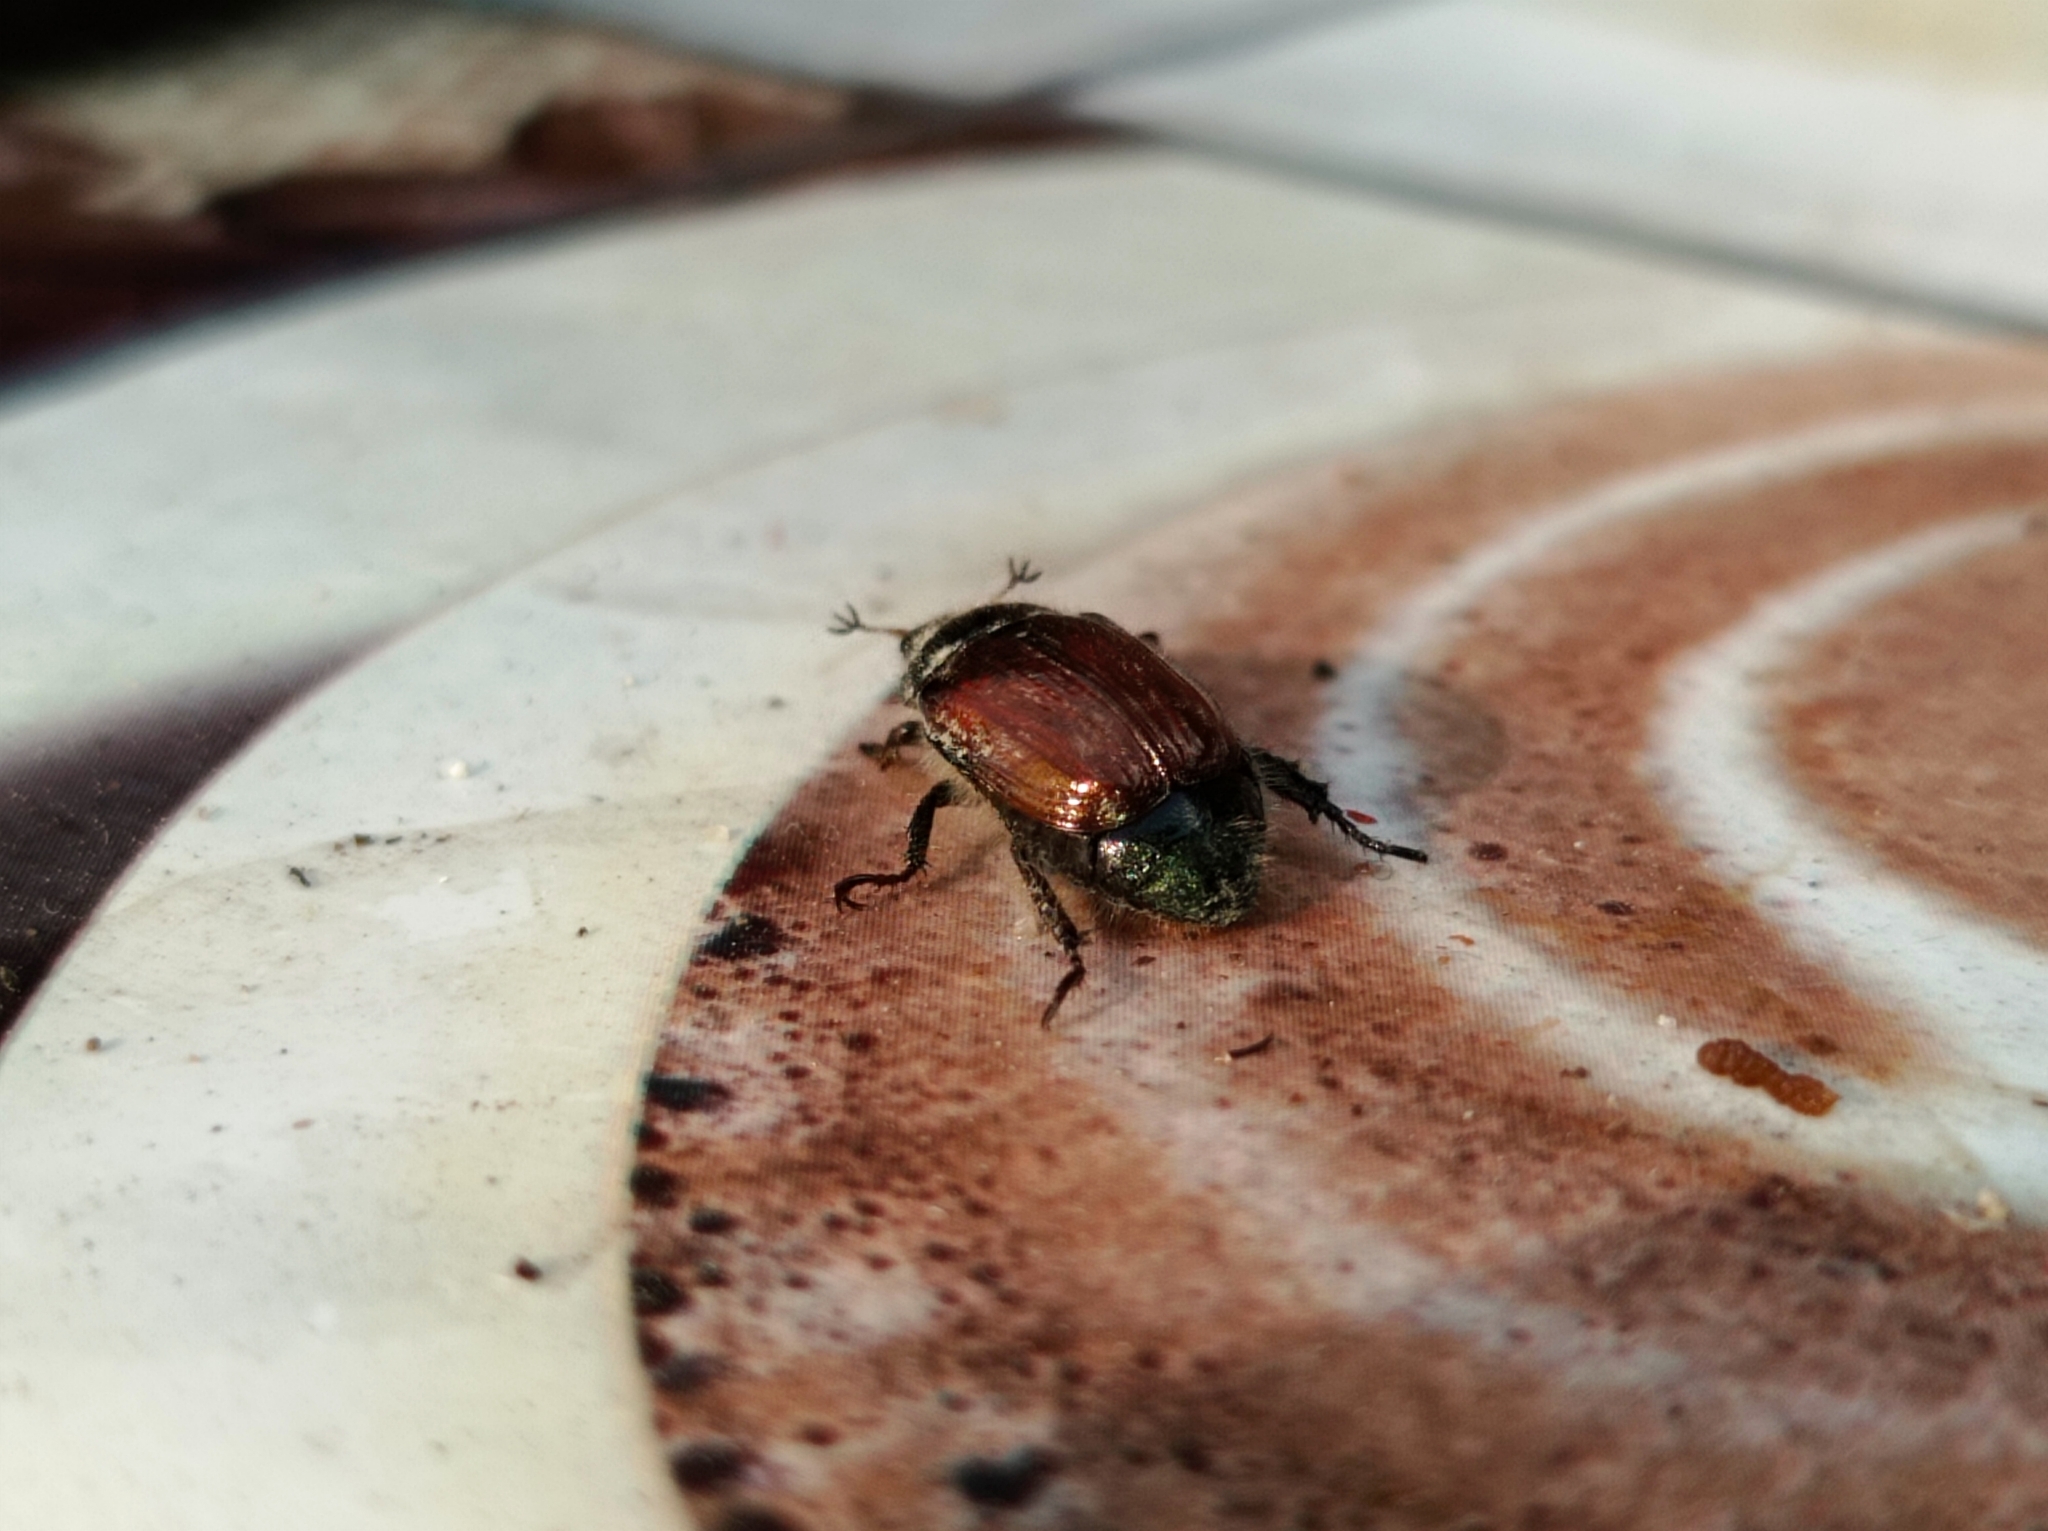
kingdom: Animalia
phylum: Arthropoda
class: Insecta
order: Coleoptera
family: Scarabaeidae
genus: Phyllopertha
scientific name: Phyllopertha horticola
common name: Garden chafer
